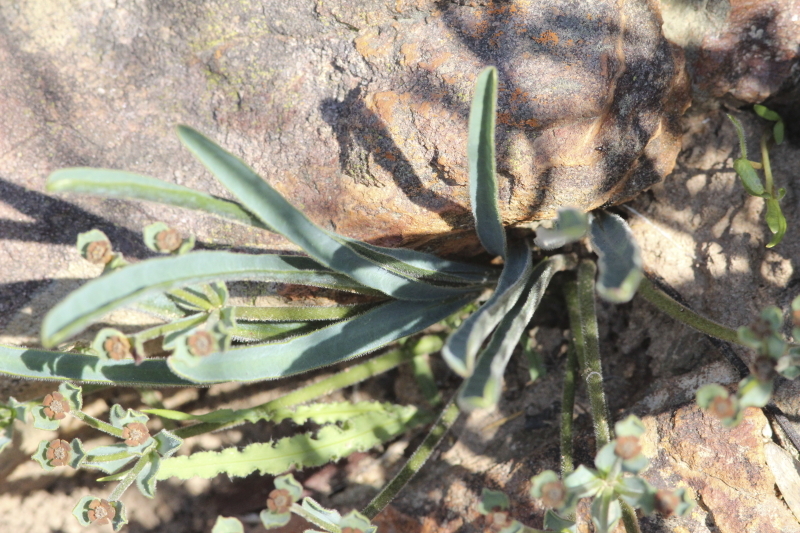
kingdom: Plantae
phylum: Tracheophyta
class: Magnoliopsida
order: Malpighiales
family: Euphorbiaceae
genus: Euphorbia
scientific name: Euphorbia tuberosa
